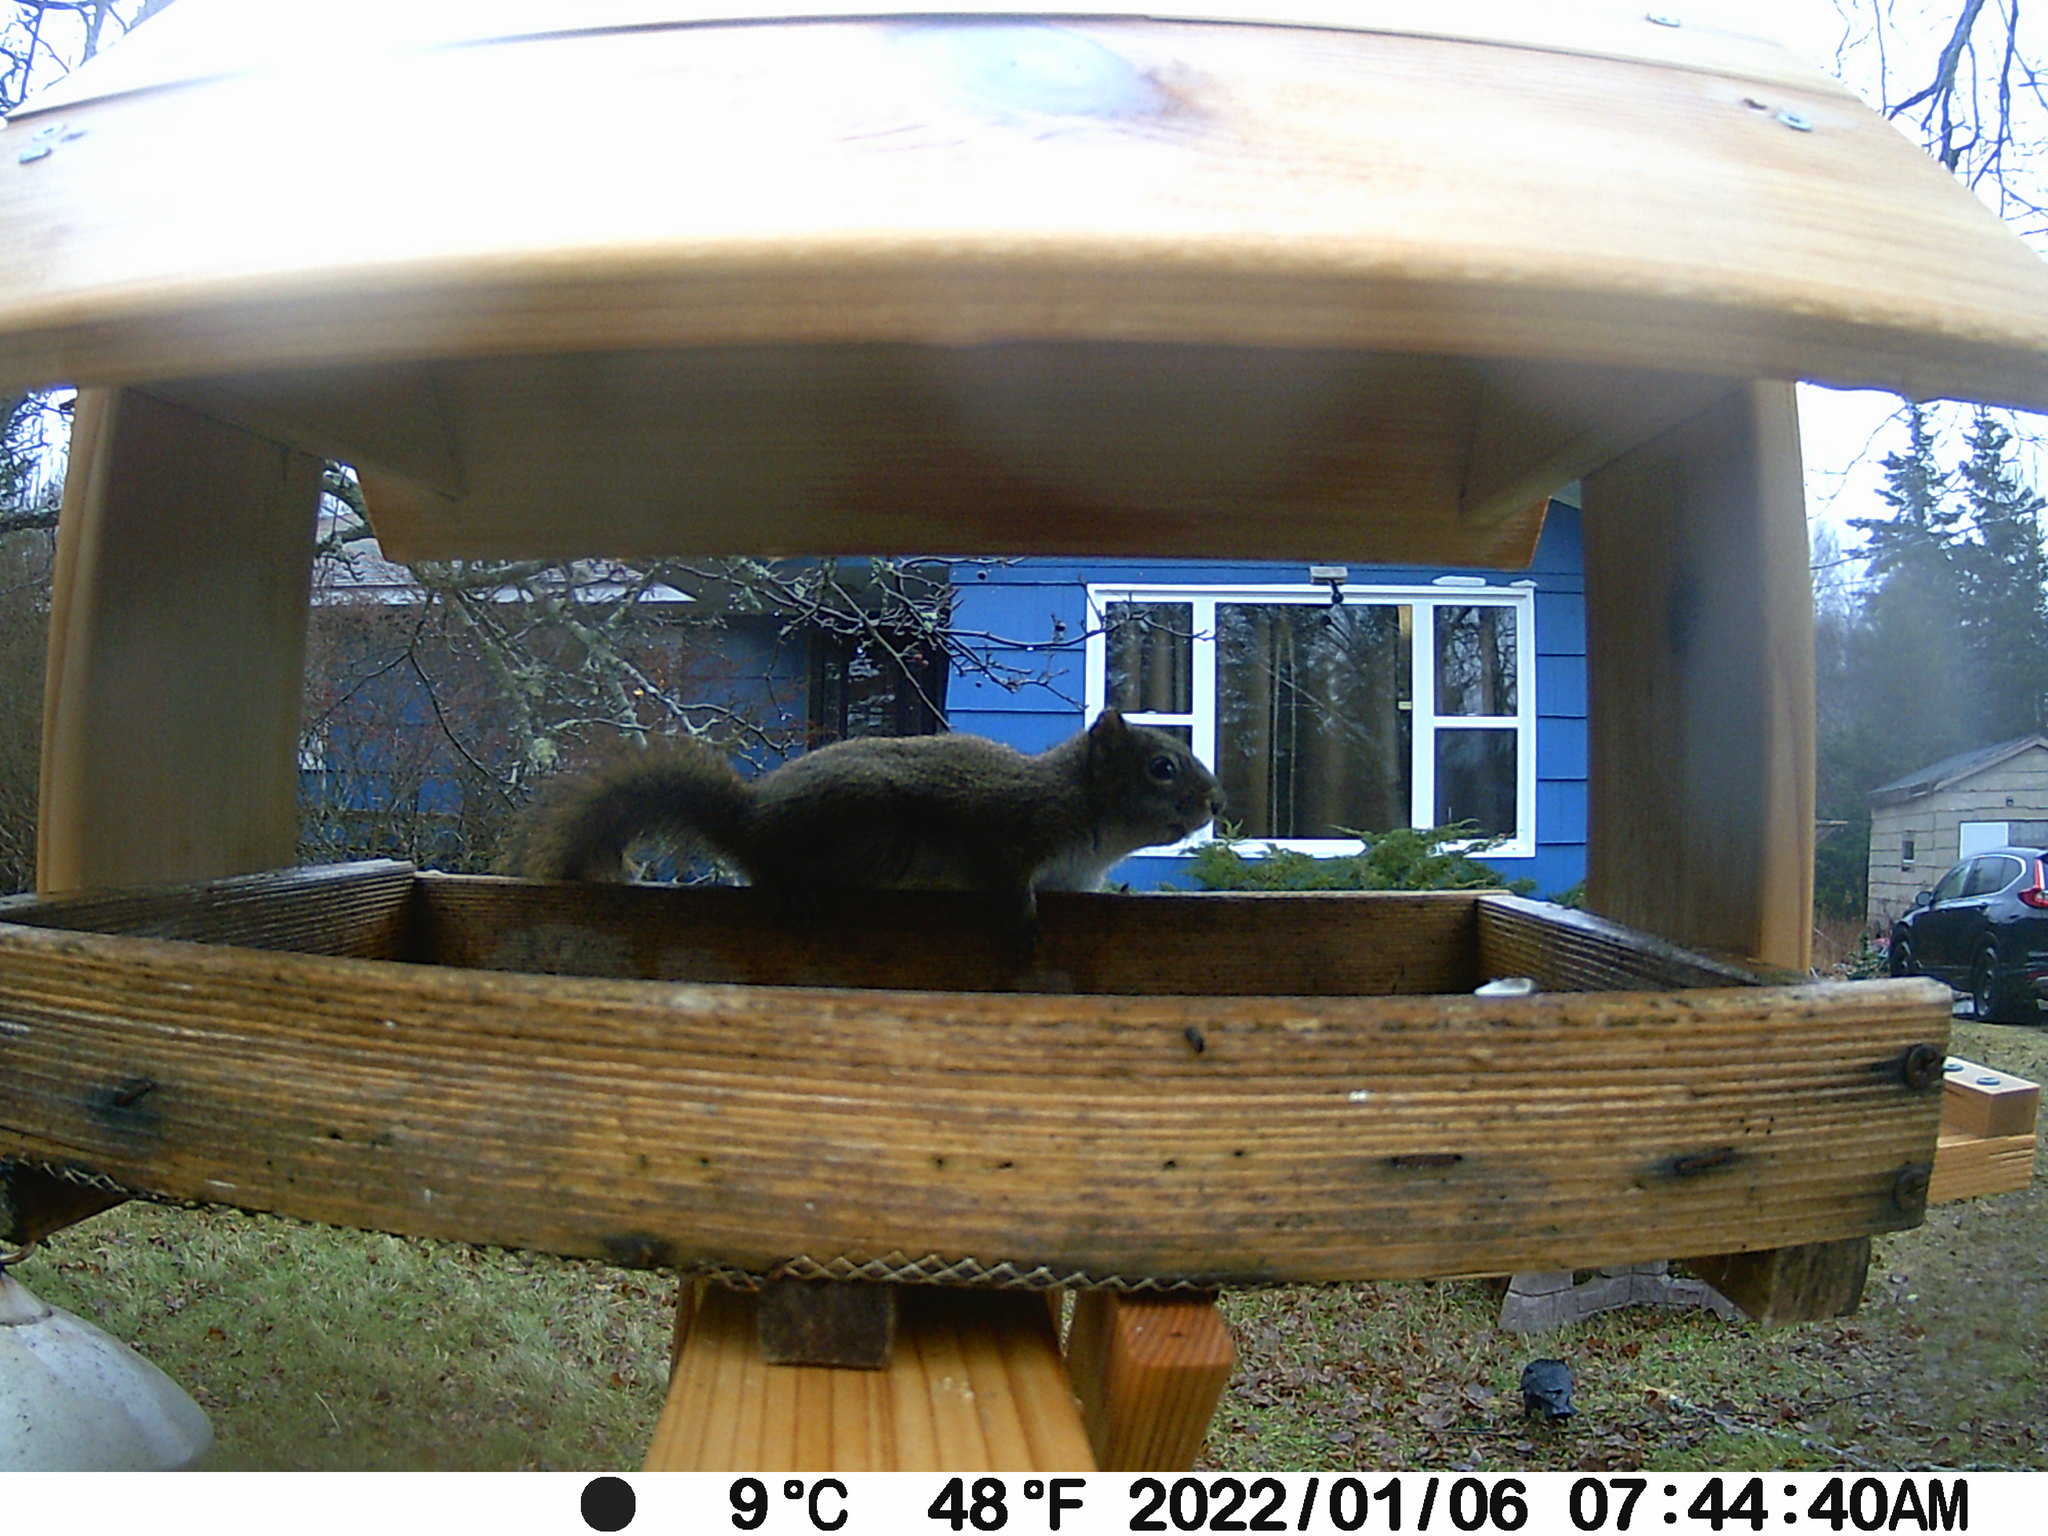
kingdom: Animalia
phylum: Chordata
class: Mammalia
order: Rodentia
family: Sciuridae
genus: Tamiasciurus
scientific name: Tamiasciurus hudsonicus
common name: Red squirrel
